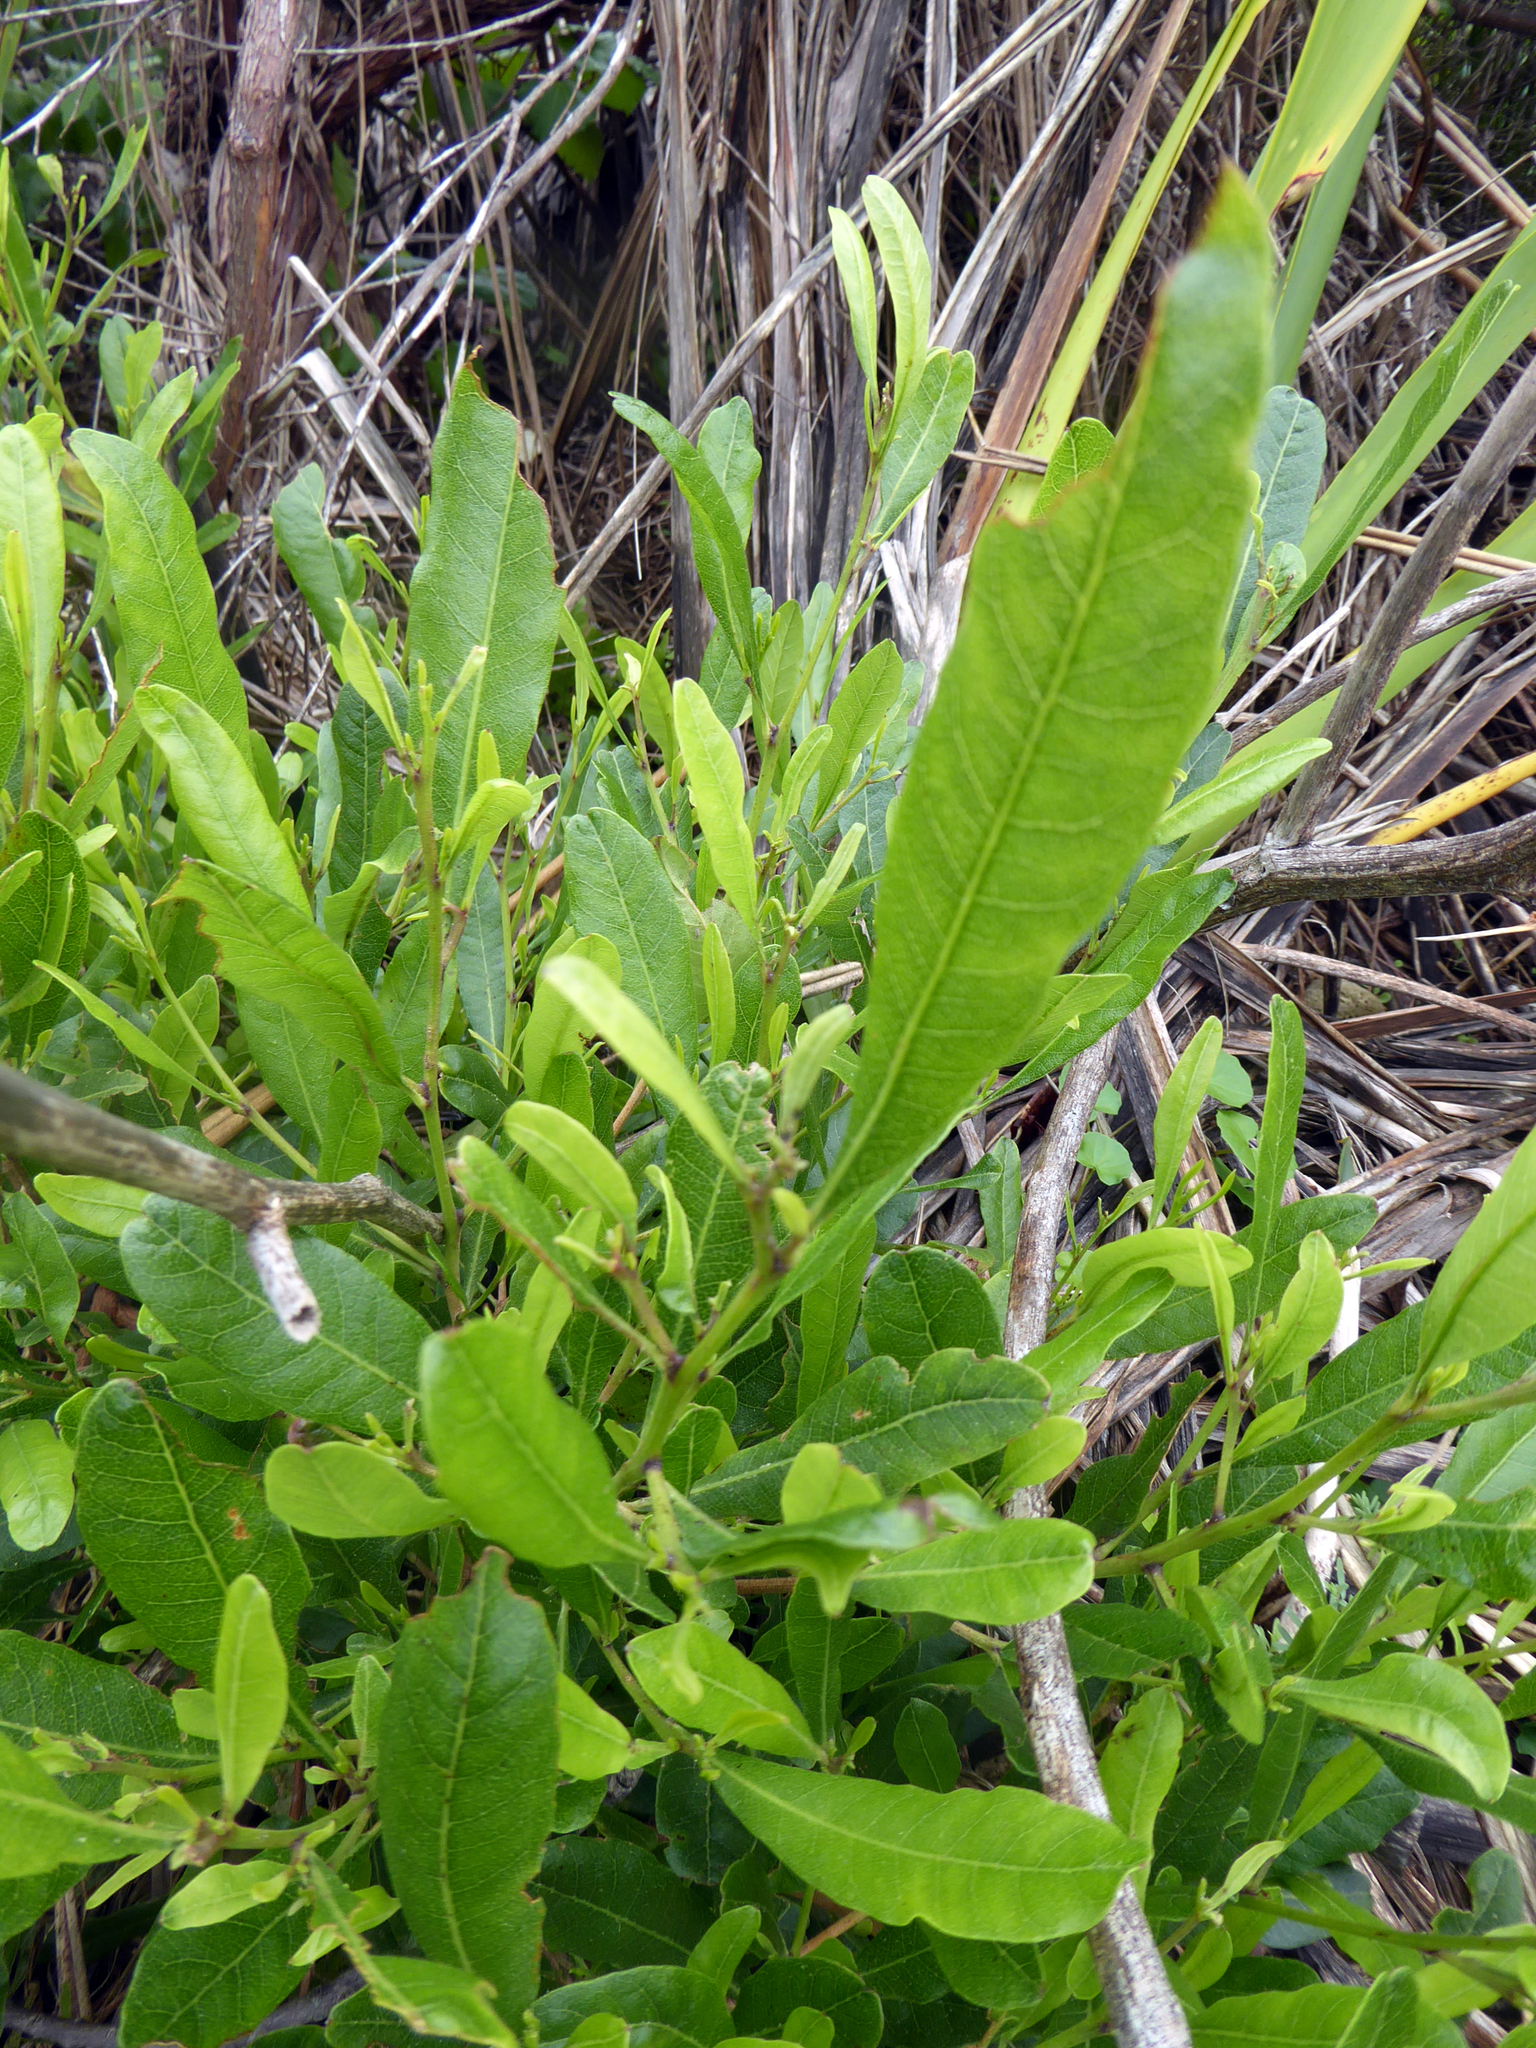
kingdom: Plantae
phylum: Tracheophyta
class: Magnoliopsida
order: Sapindales
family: Sapindaceae
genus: Dodonaea
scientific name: Dodonaea viscosa
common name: Hopbush
